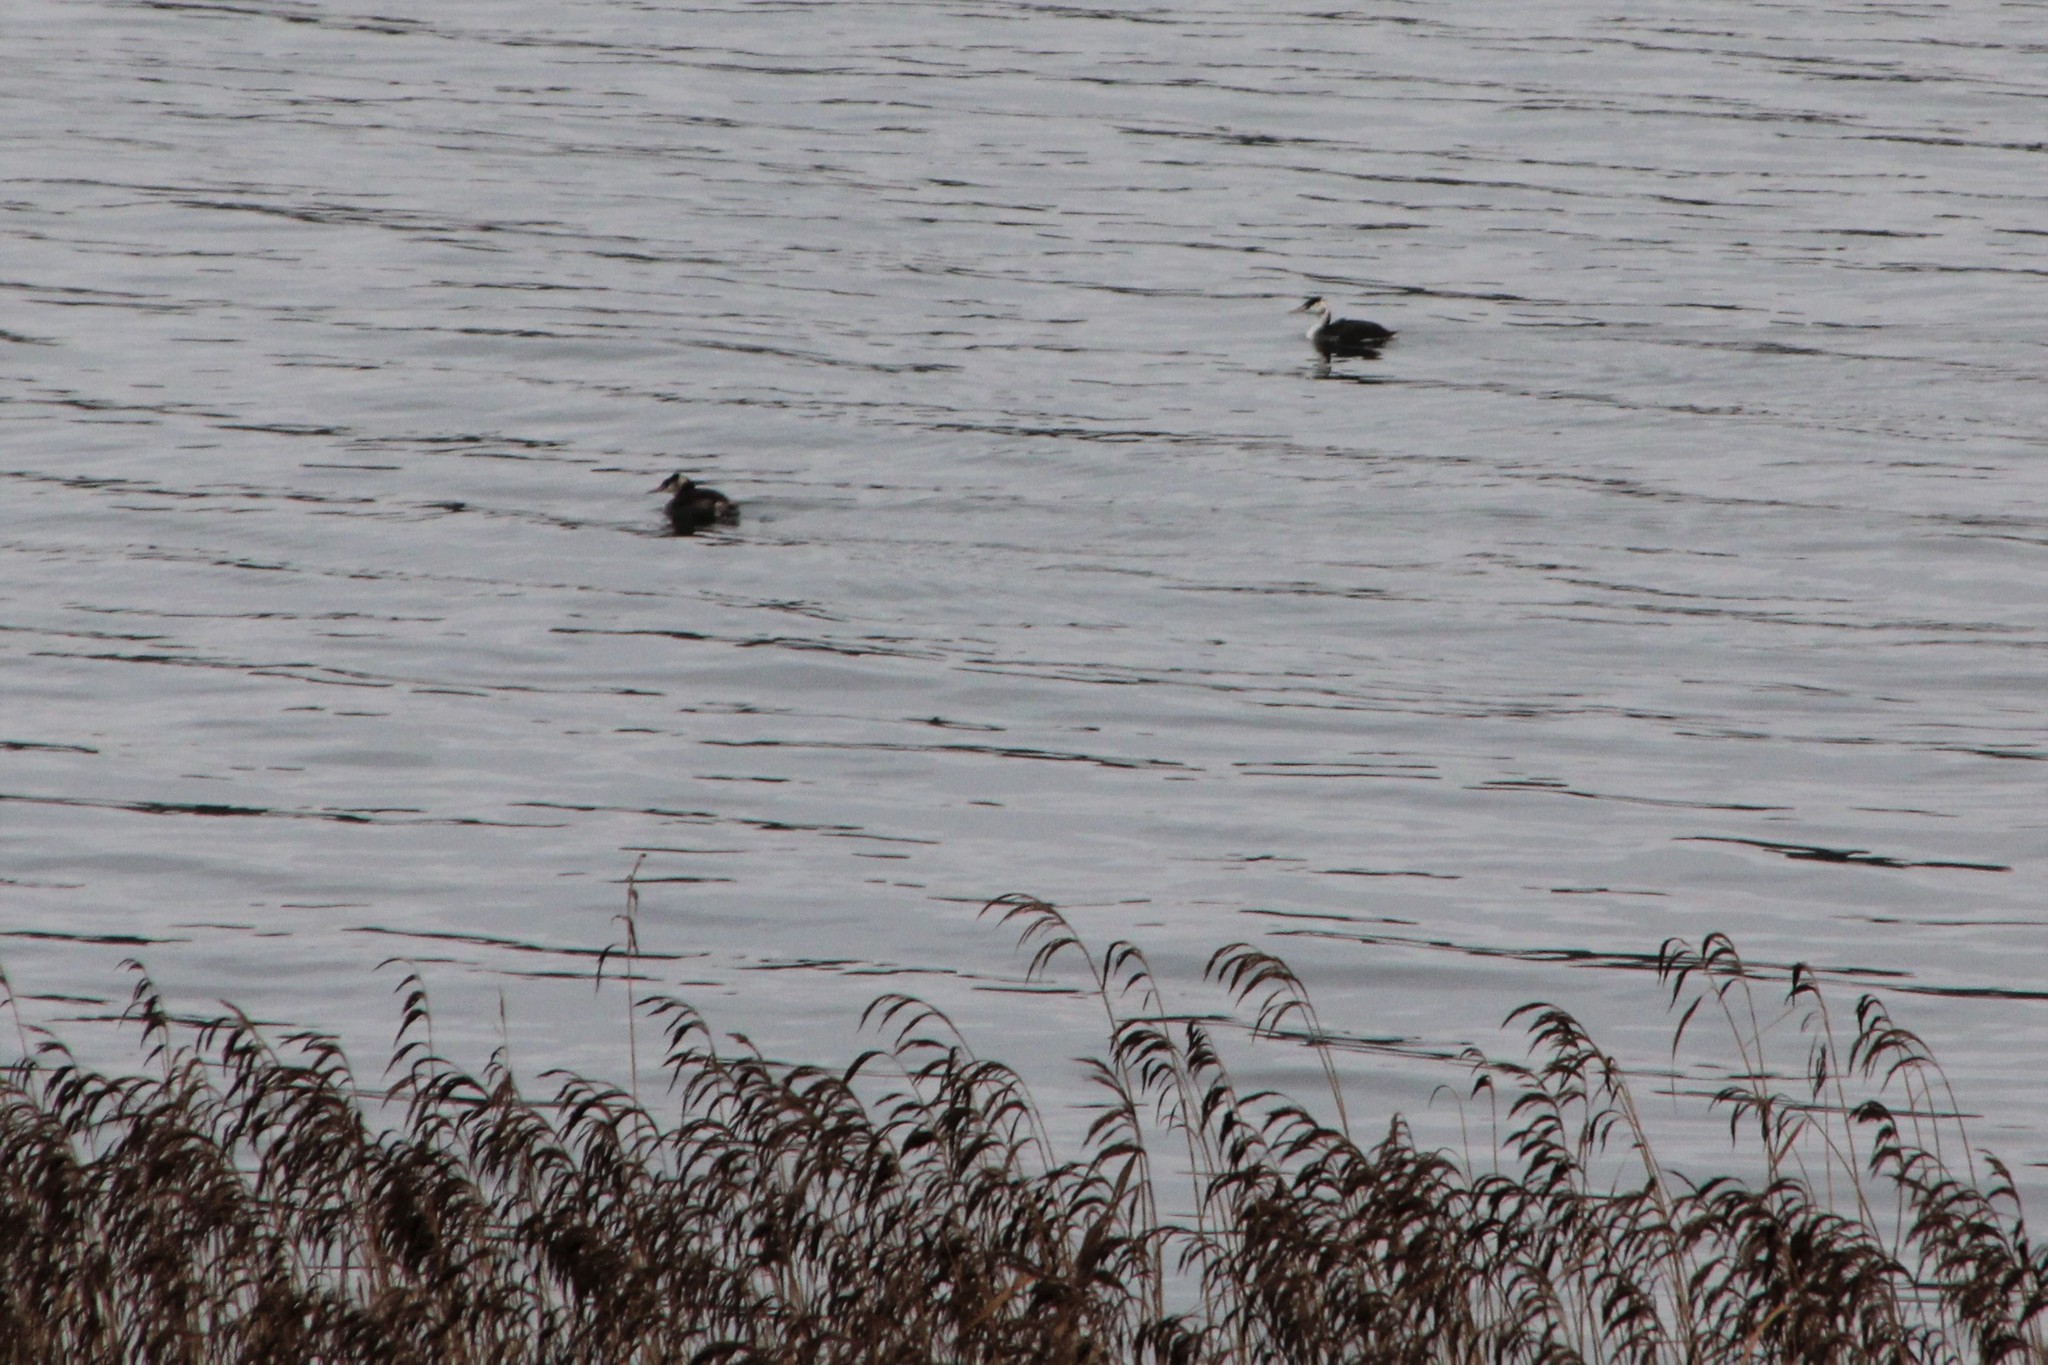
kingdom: Animalia
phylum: Chordata
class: Aves
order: Podicipediformes
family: Podicipedidae
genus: Podiceps
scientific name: Podiceps cristatus
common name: Great crested grebe
